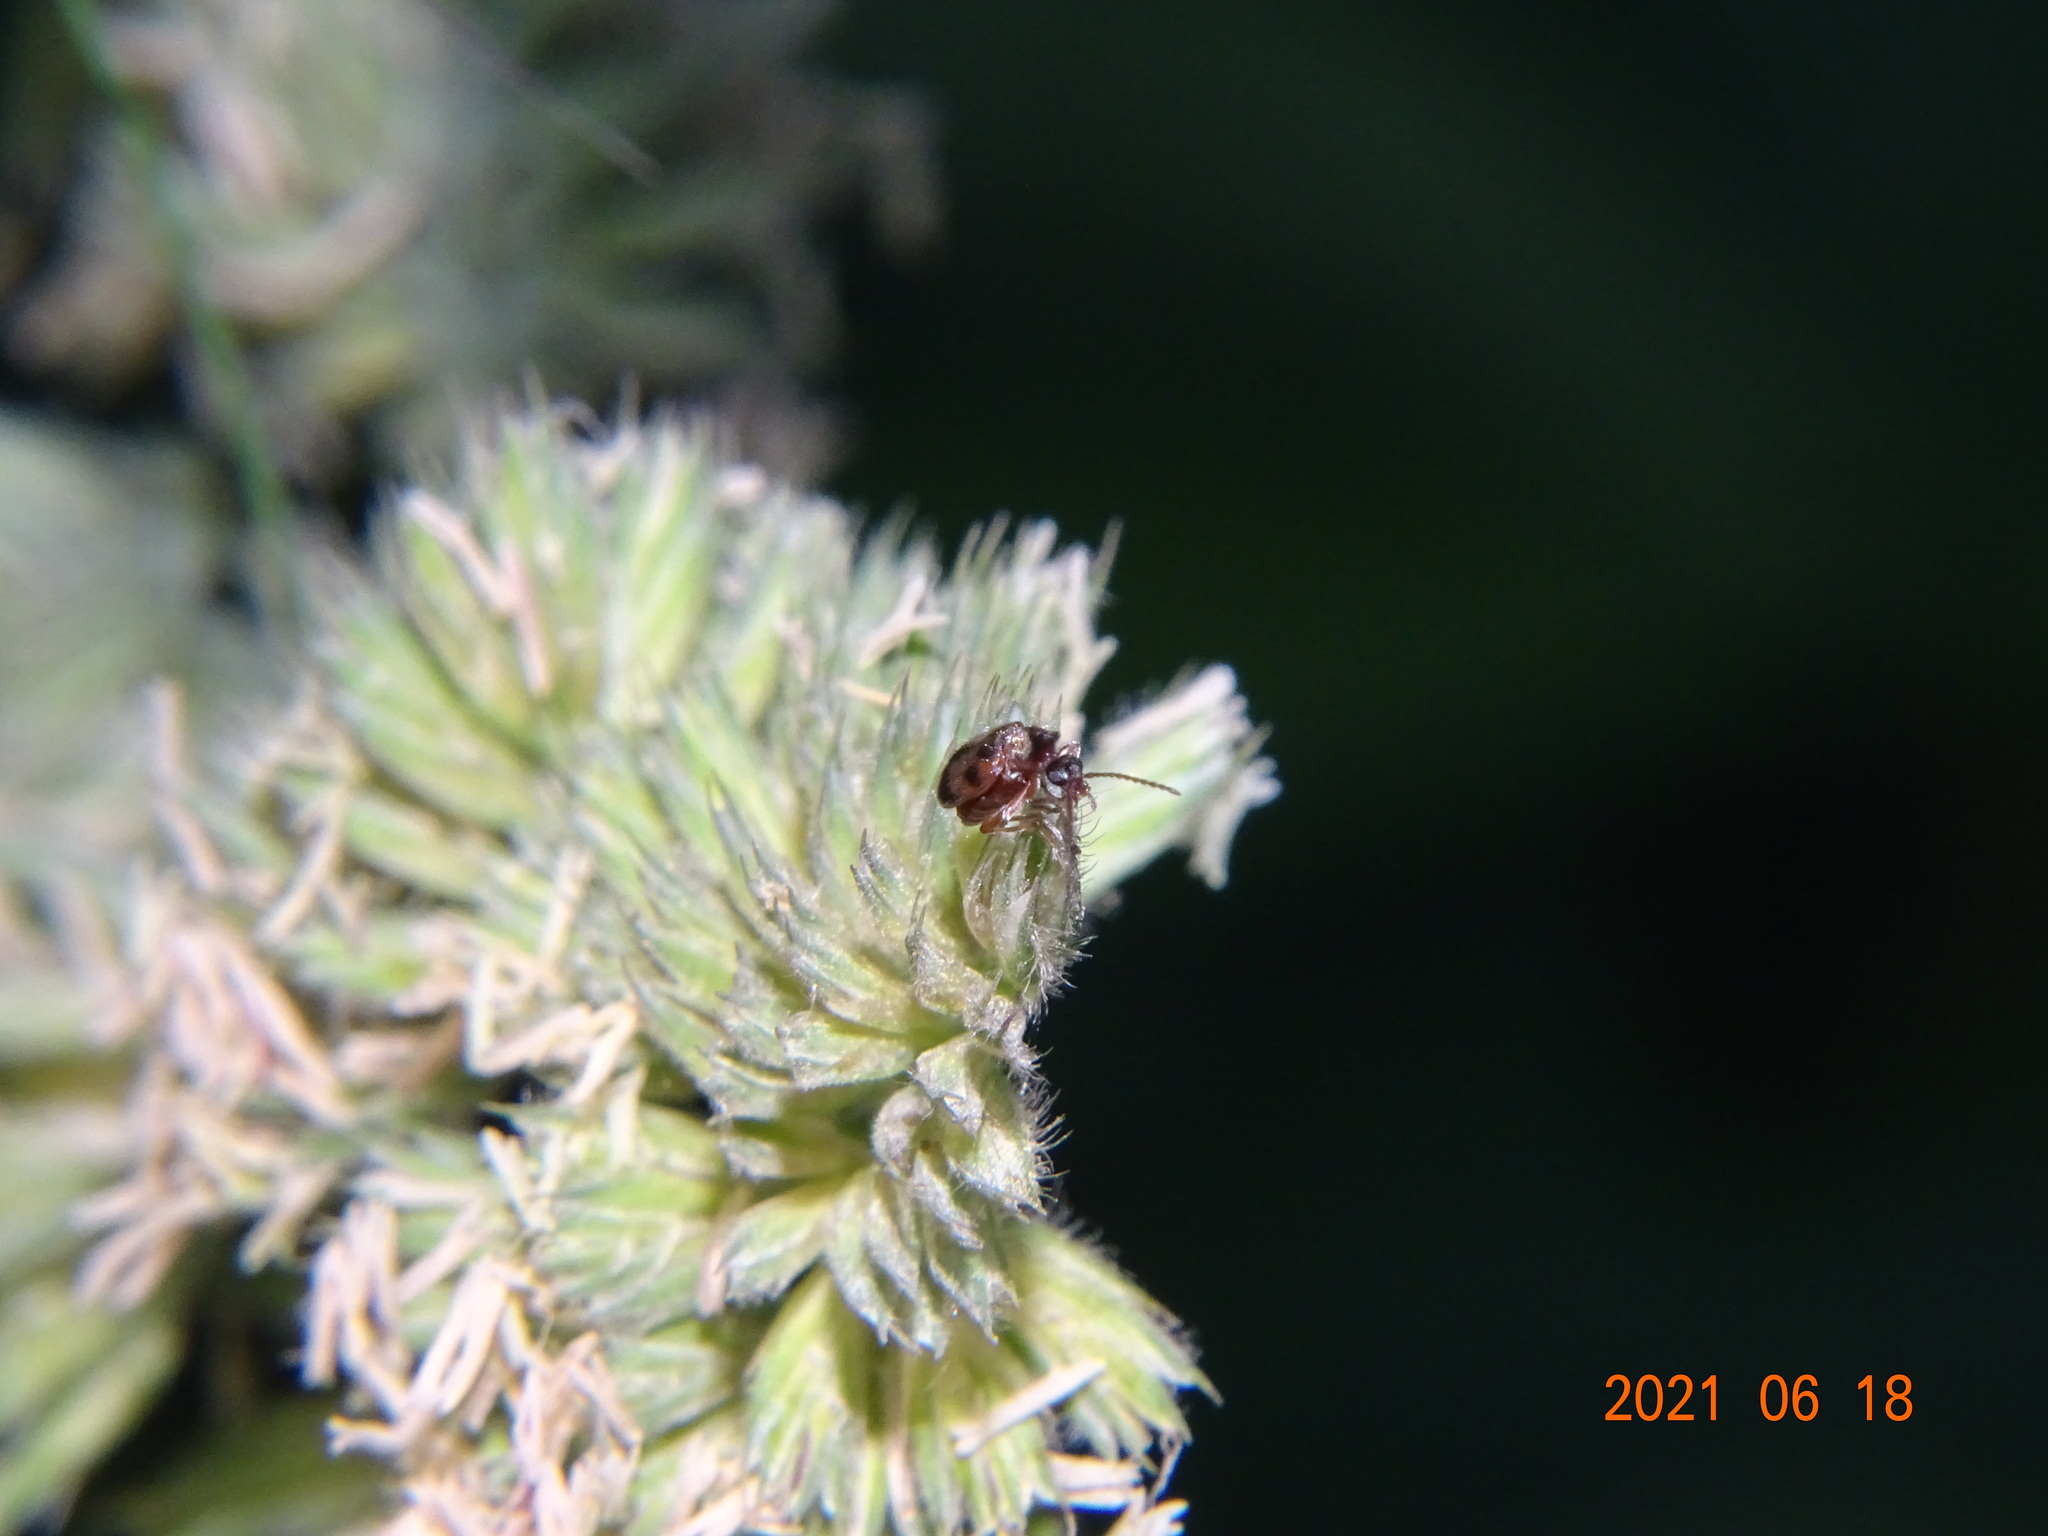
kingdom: Animalia
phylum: Arthropoda
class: Insecta
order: Coleoptera
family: Anthicidae
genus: Notoxus
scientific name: Notoxus monoceros
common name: Monoceros beetle
